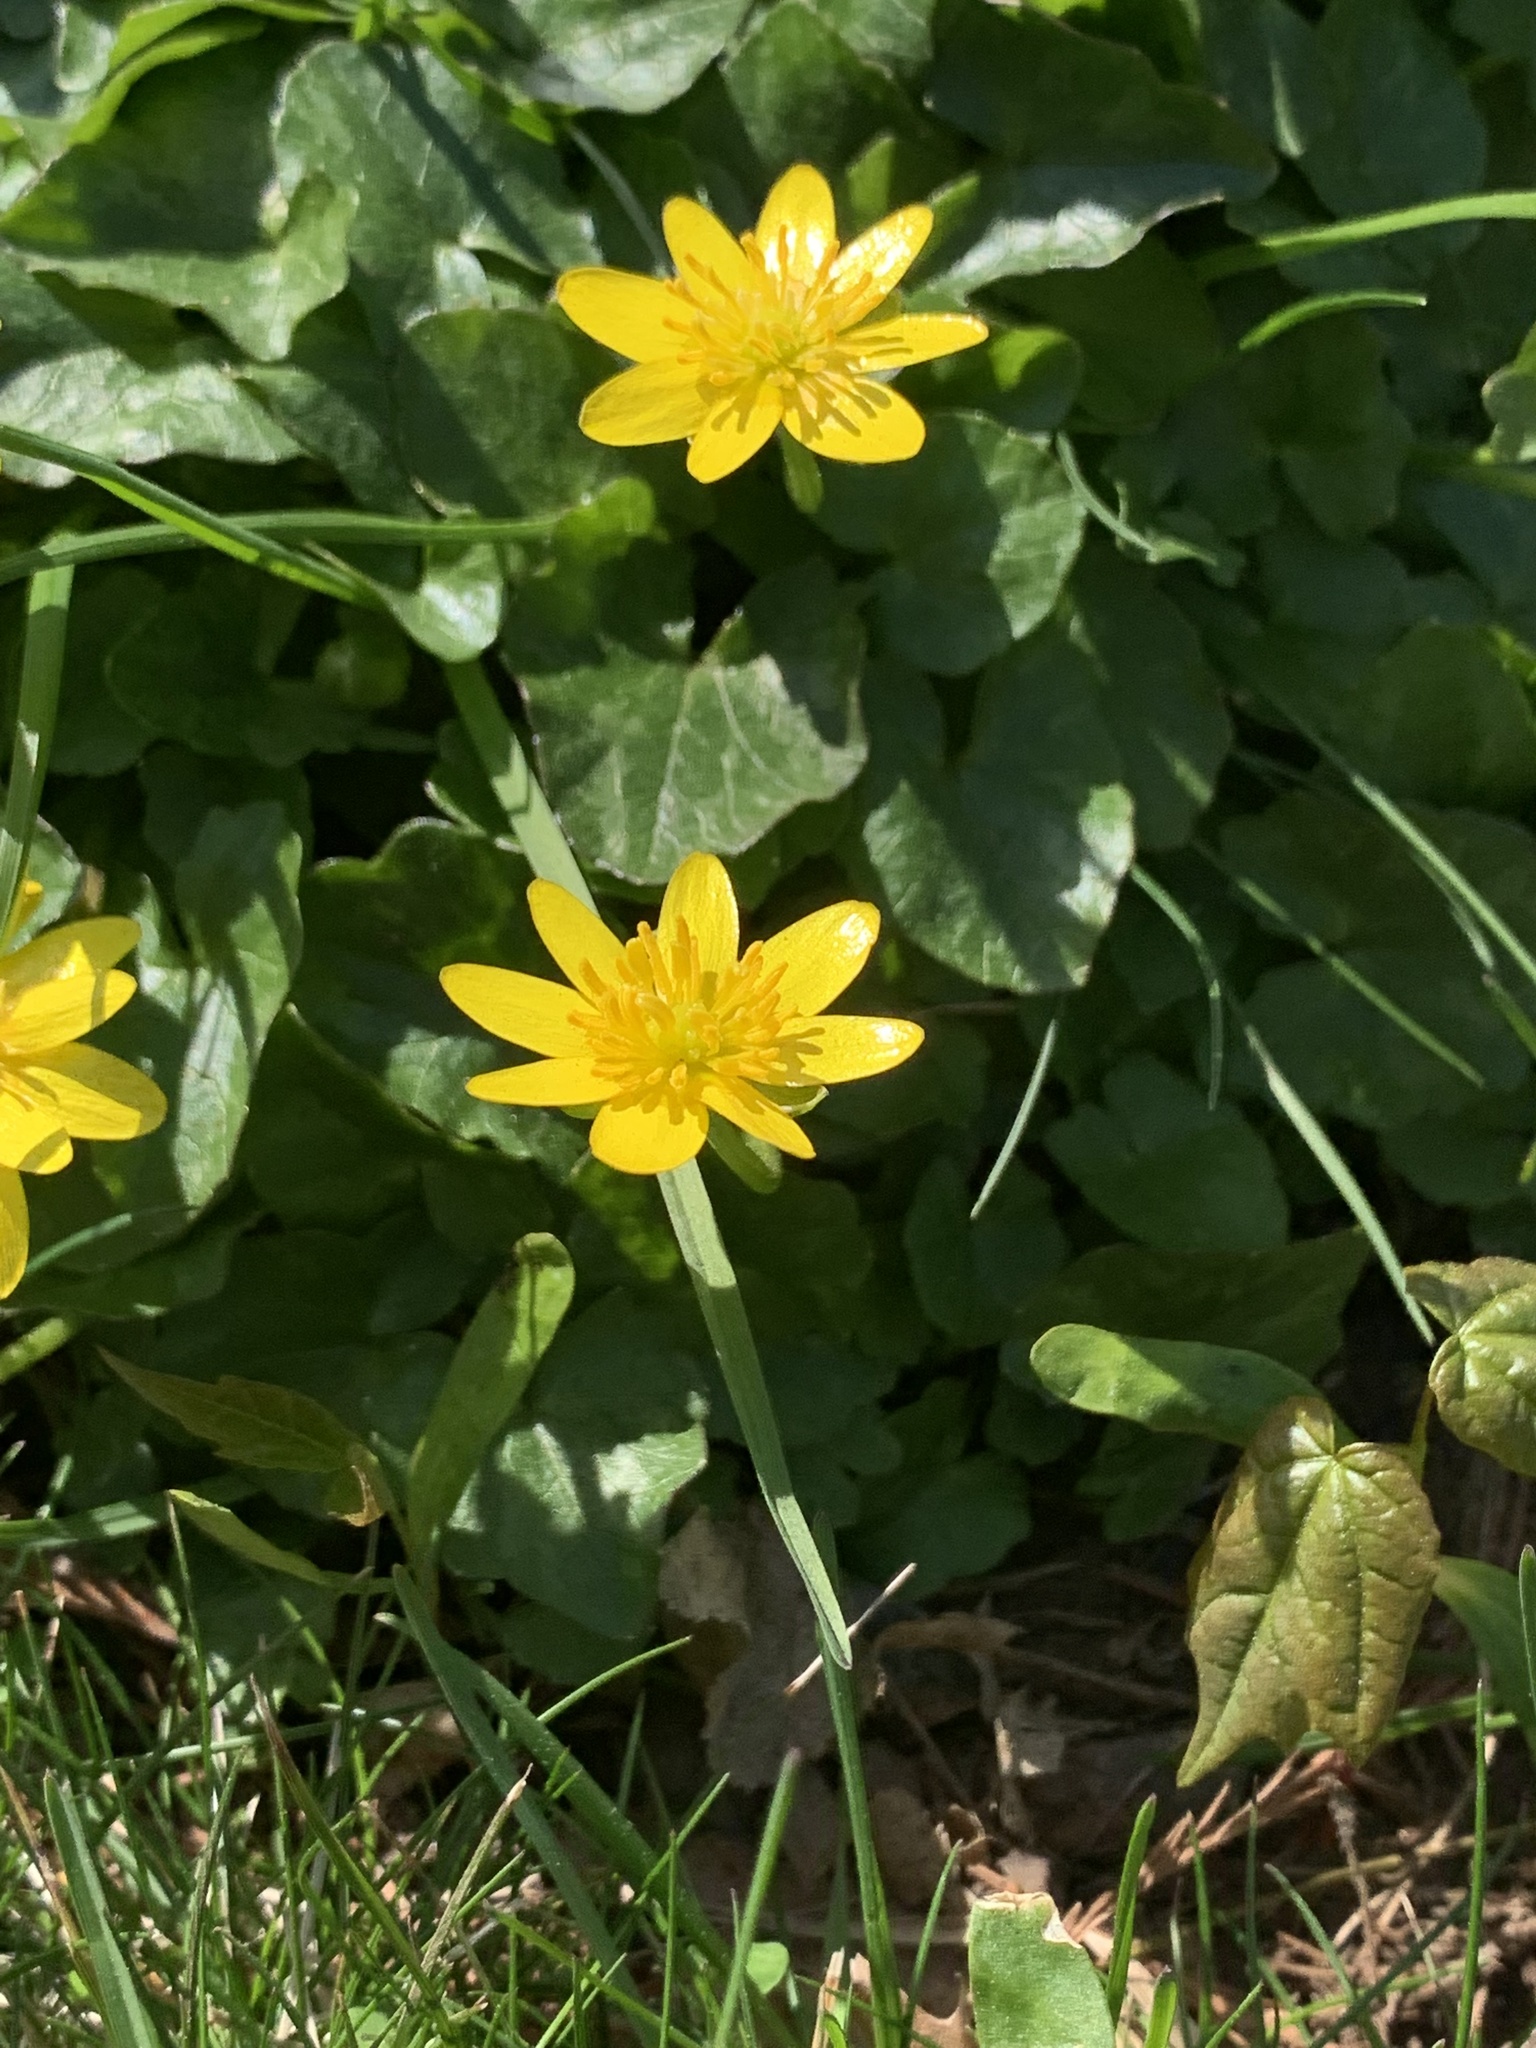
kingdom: Plantae
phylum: Tracheophyta
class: Magnoliopsida
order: Ranunculales
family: Ranunculaceae
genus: Ficaria
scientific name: Ficaria verna
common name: Lesser celandine
